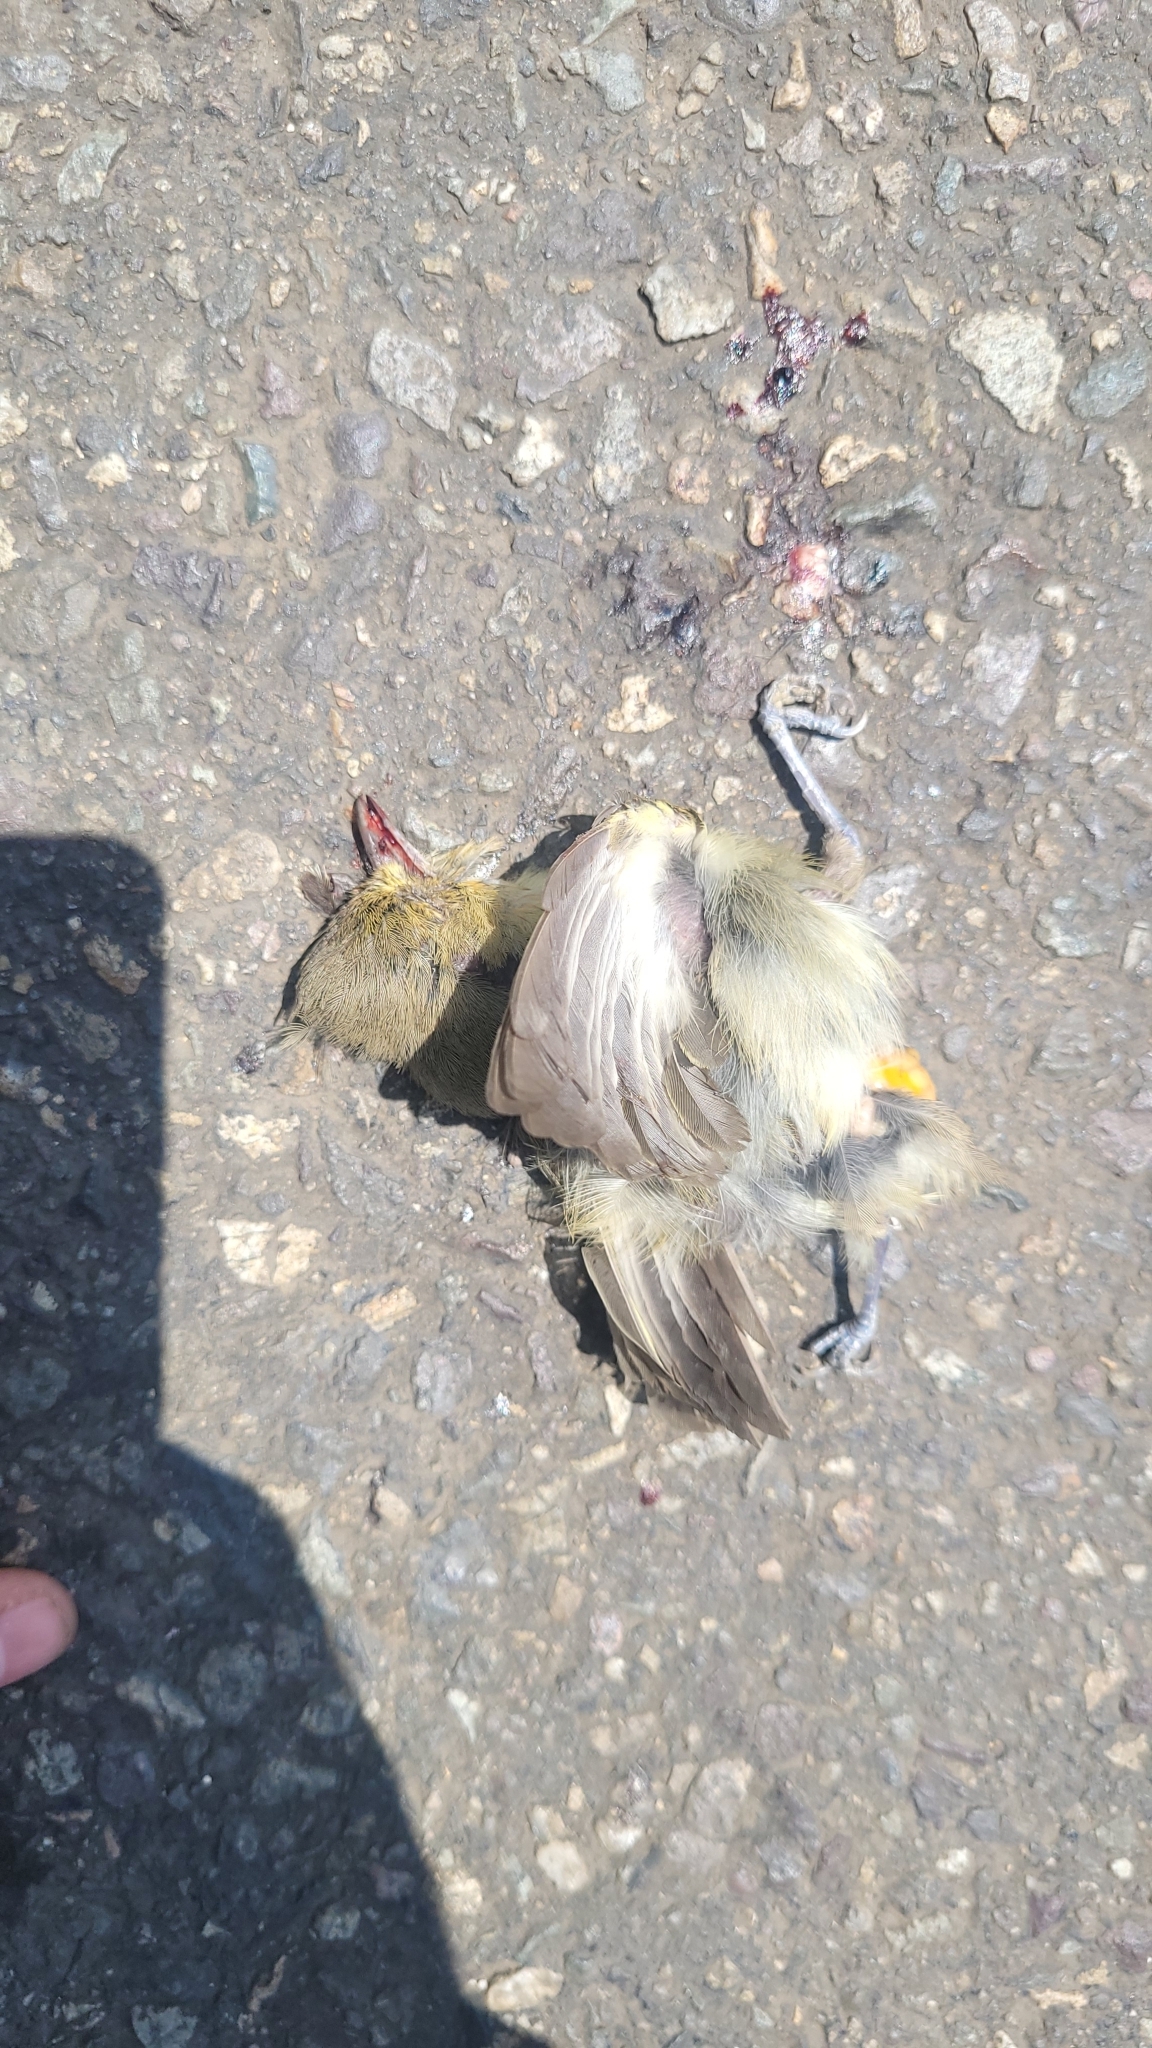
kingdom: Animalia
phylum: Chordata
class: Aves
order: Passeriformes
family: Vireonidae
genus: Vireo
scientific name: Vireo pallens
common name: Mangrove vireo
